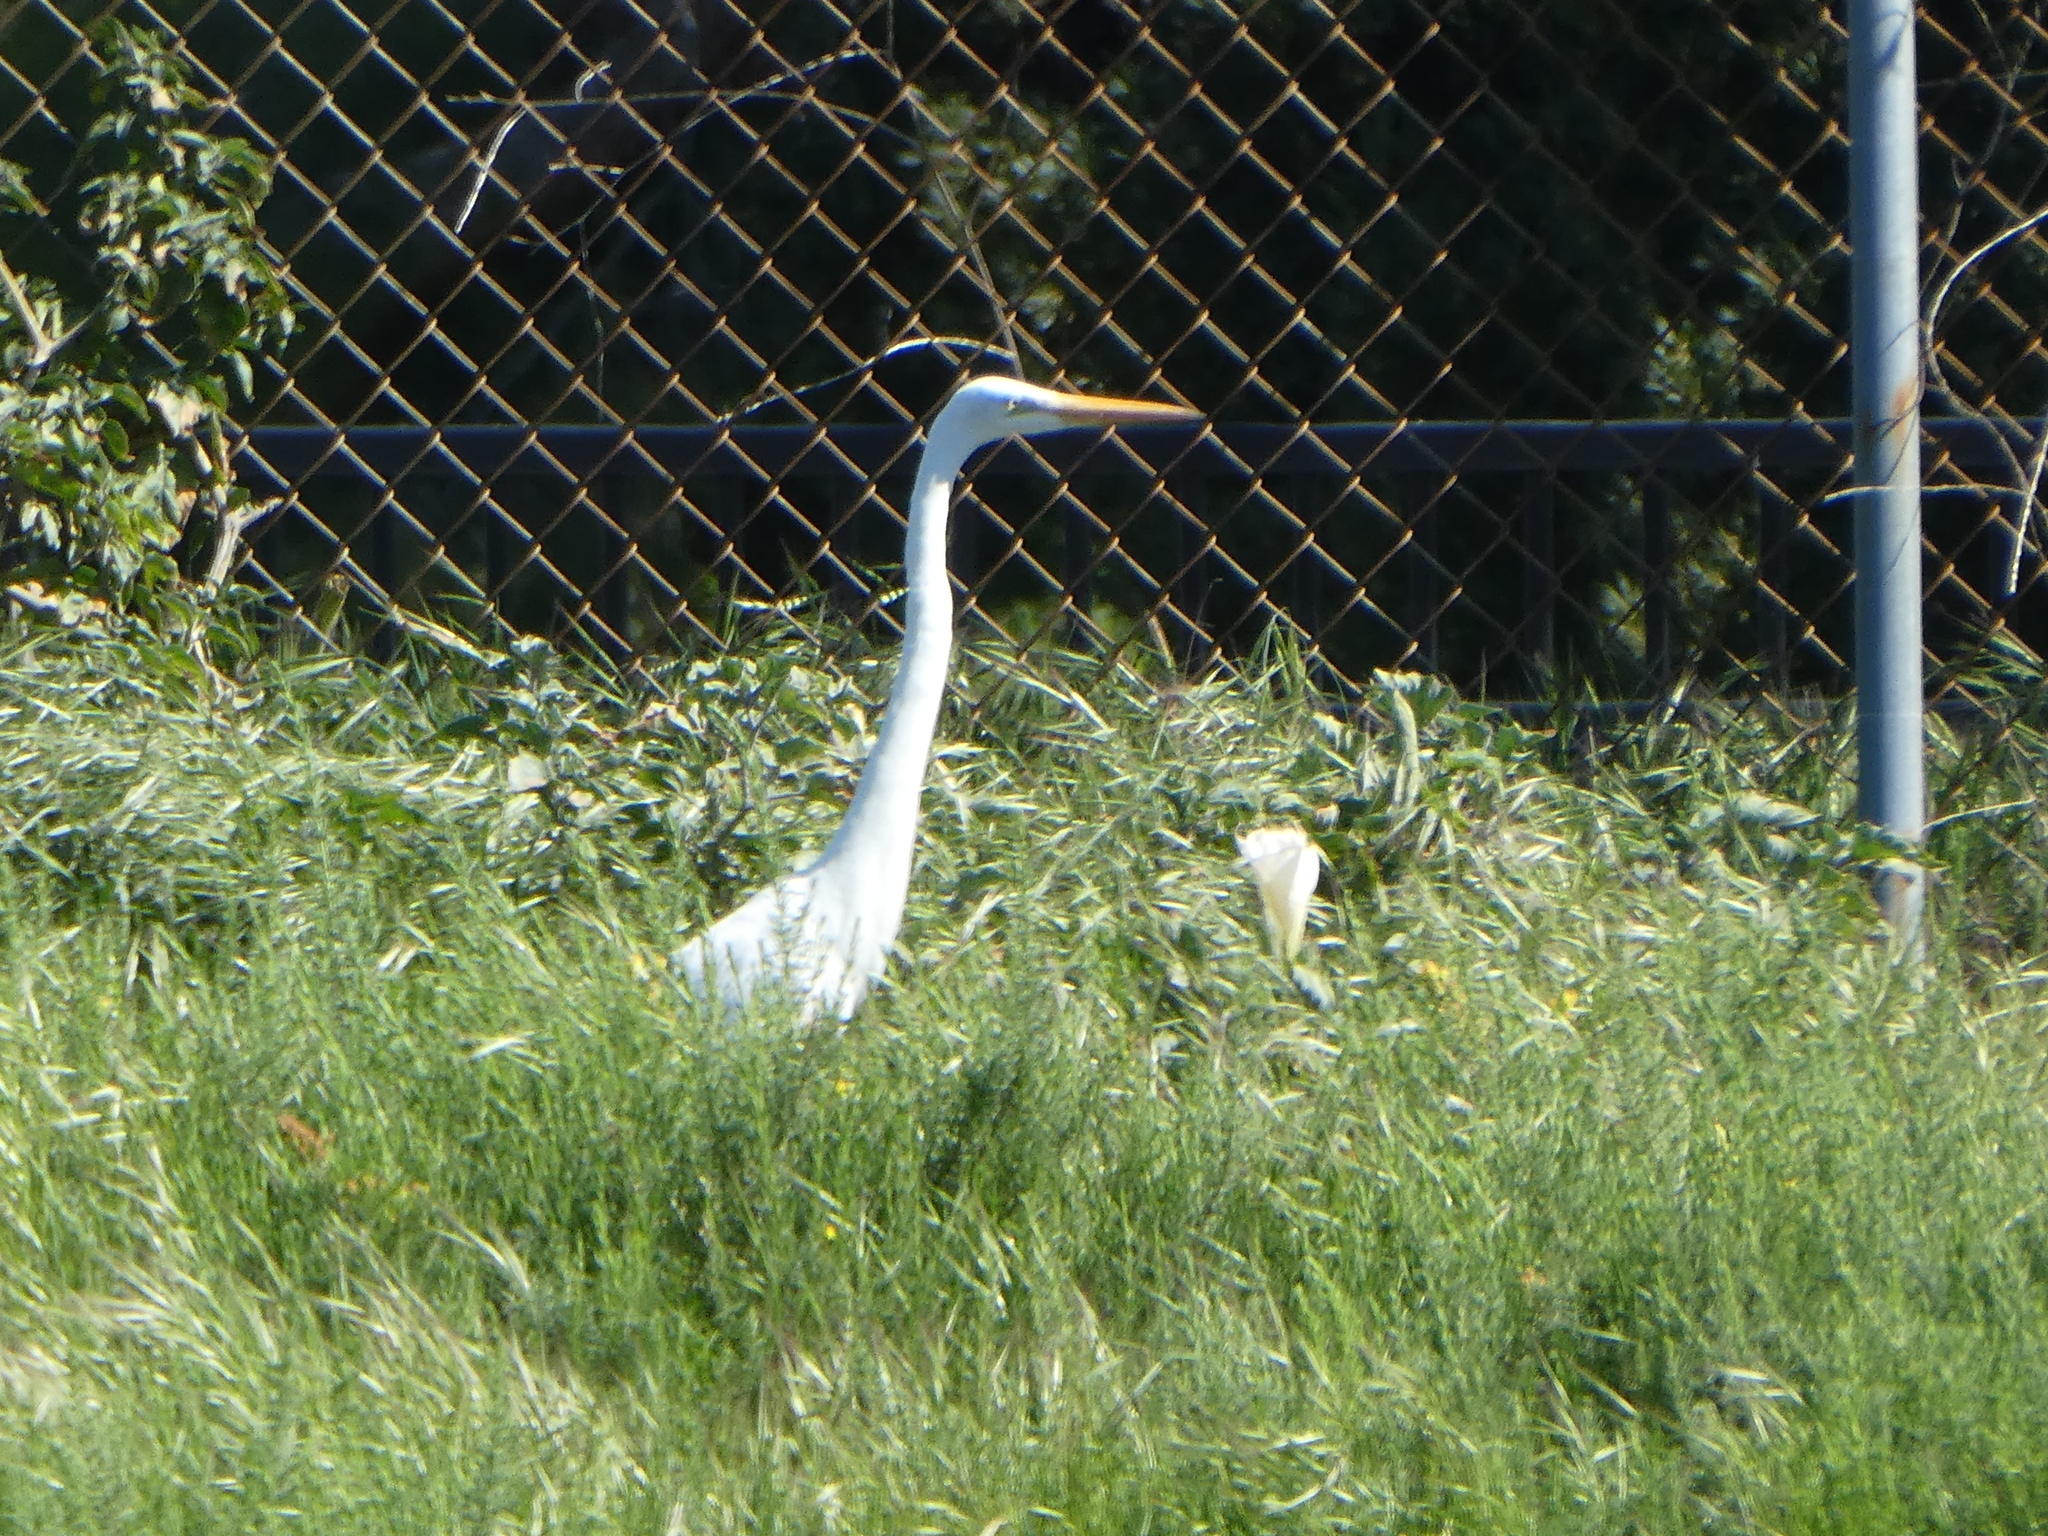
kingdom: Animalia
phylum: Chordata
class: Aves
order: Pelecaniformes
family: Ardeidae
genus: Ardea
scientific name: Ardea alba
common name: Great egret
